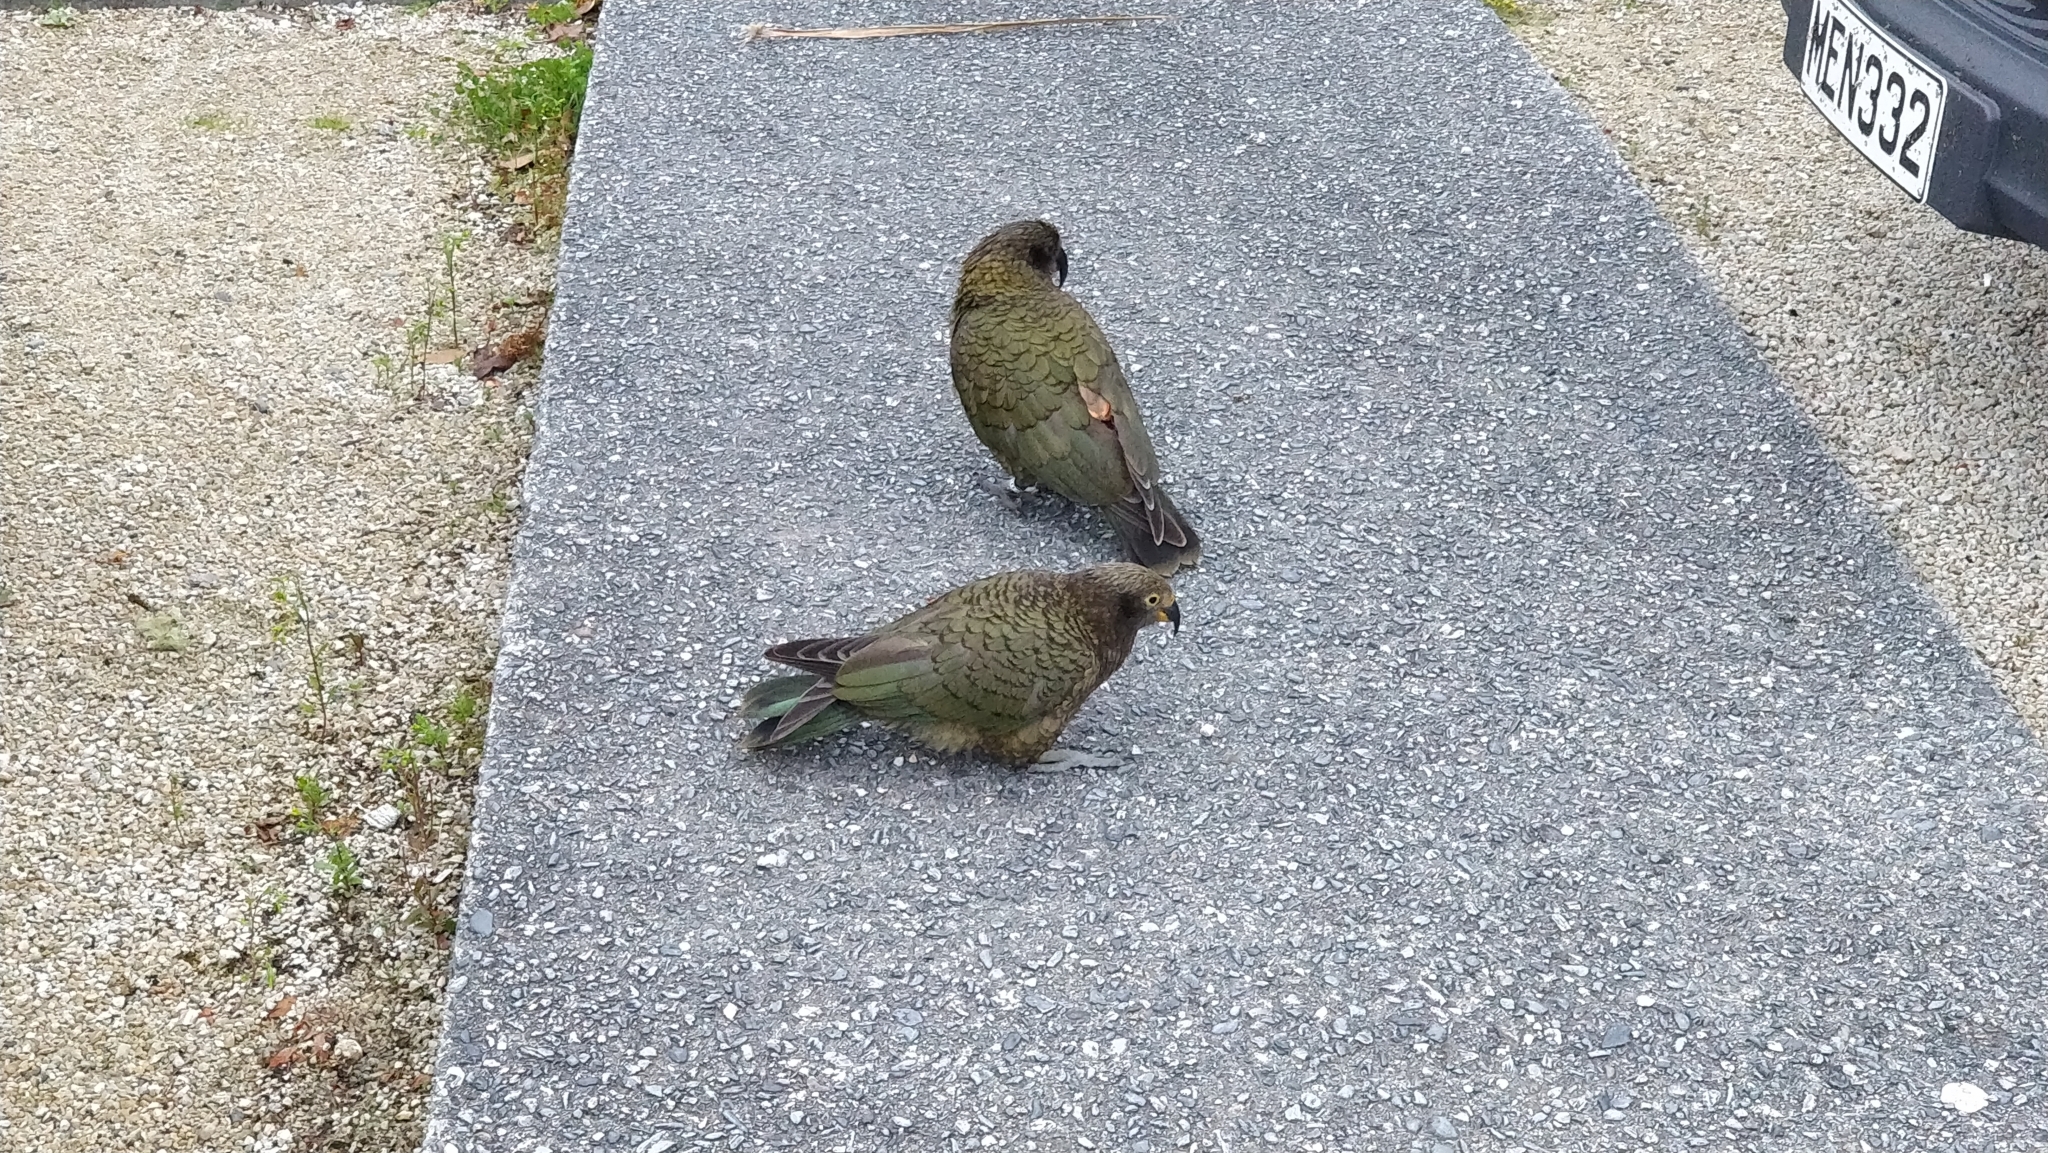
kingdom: Animalia
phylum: Chordata
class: Aves
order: Psittaciformes
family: Psittacidae
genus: Nestor
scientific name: Nestor notabilis
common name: Kea
